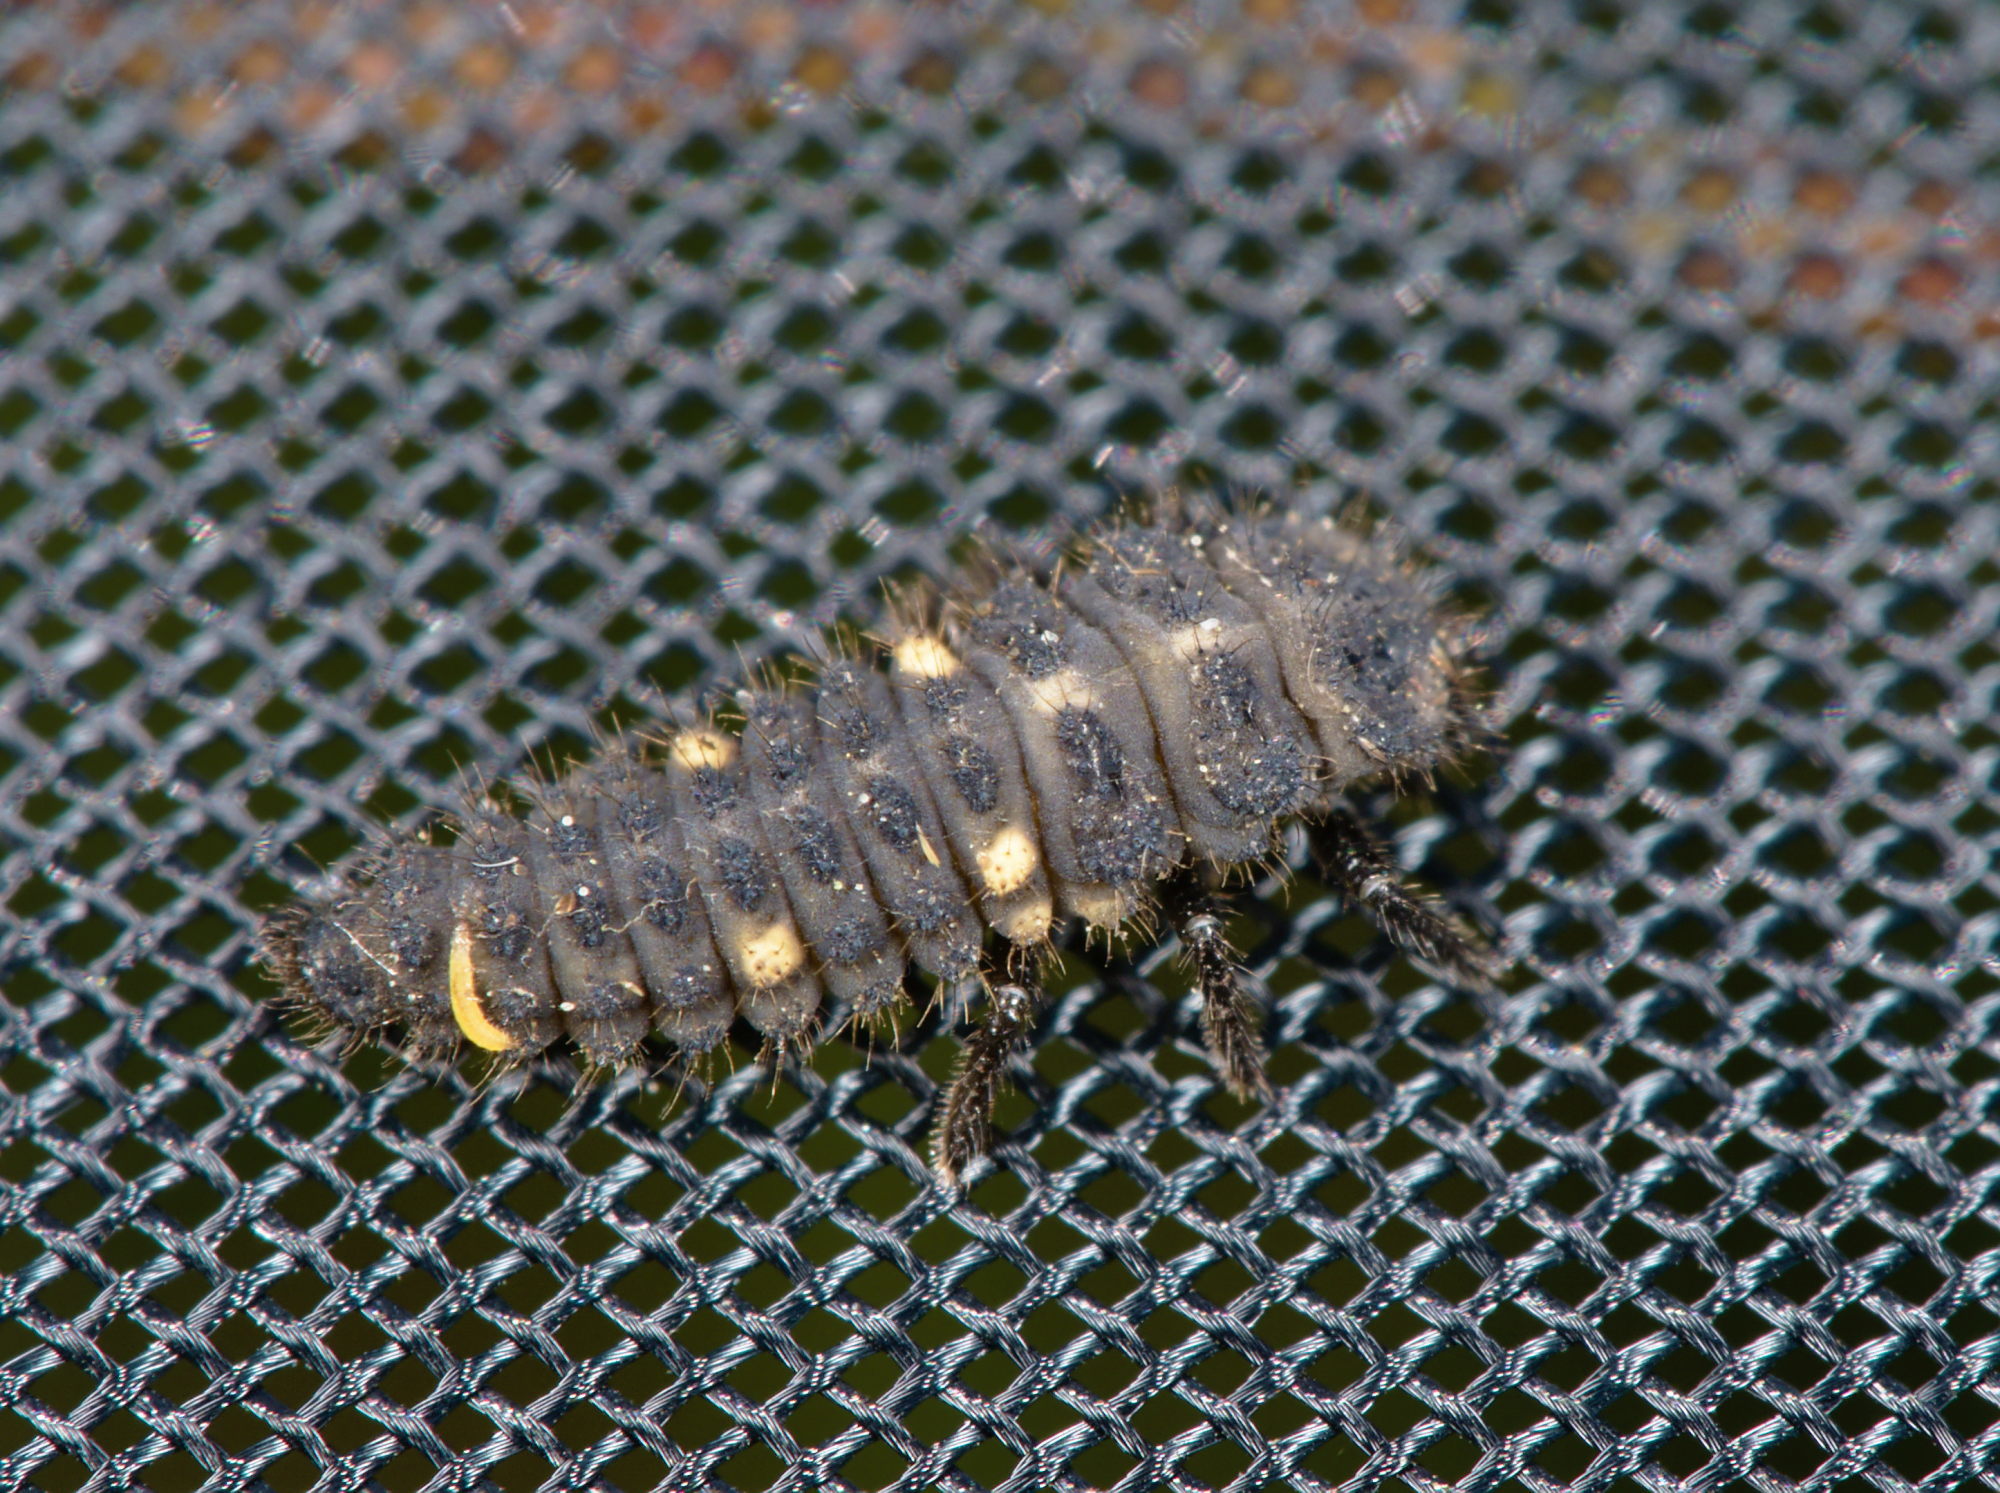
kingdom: Animalia
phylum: Arthropoda
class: Insecta
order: Coleoptera
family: Coccinellidae
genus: Coccinella
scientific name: Coccinella hieroglyphica
